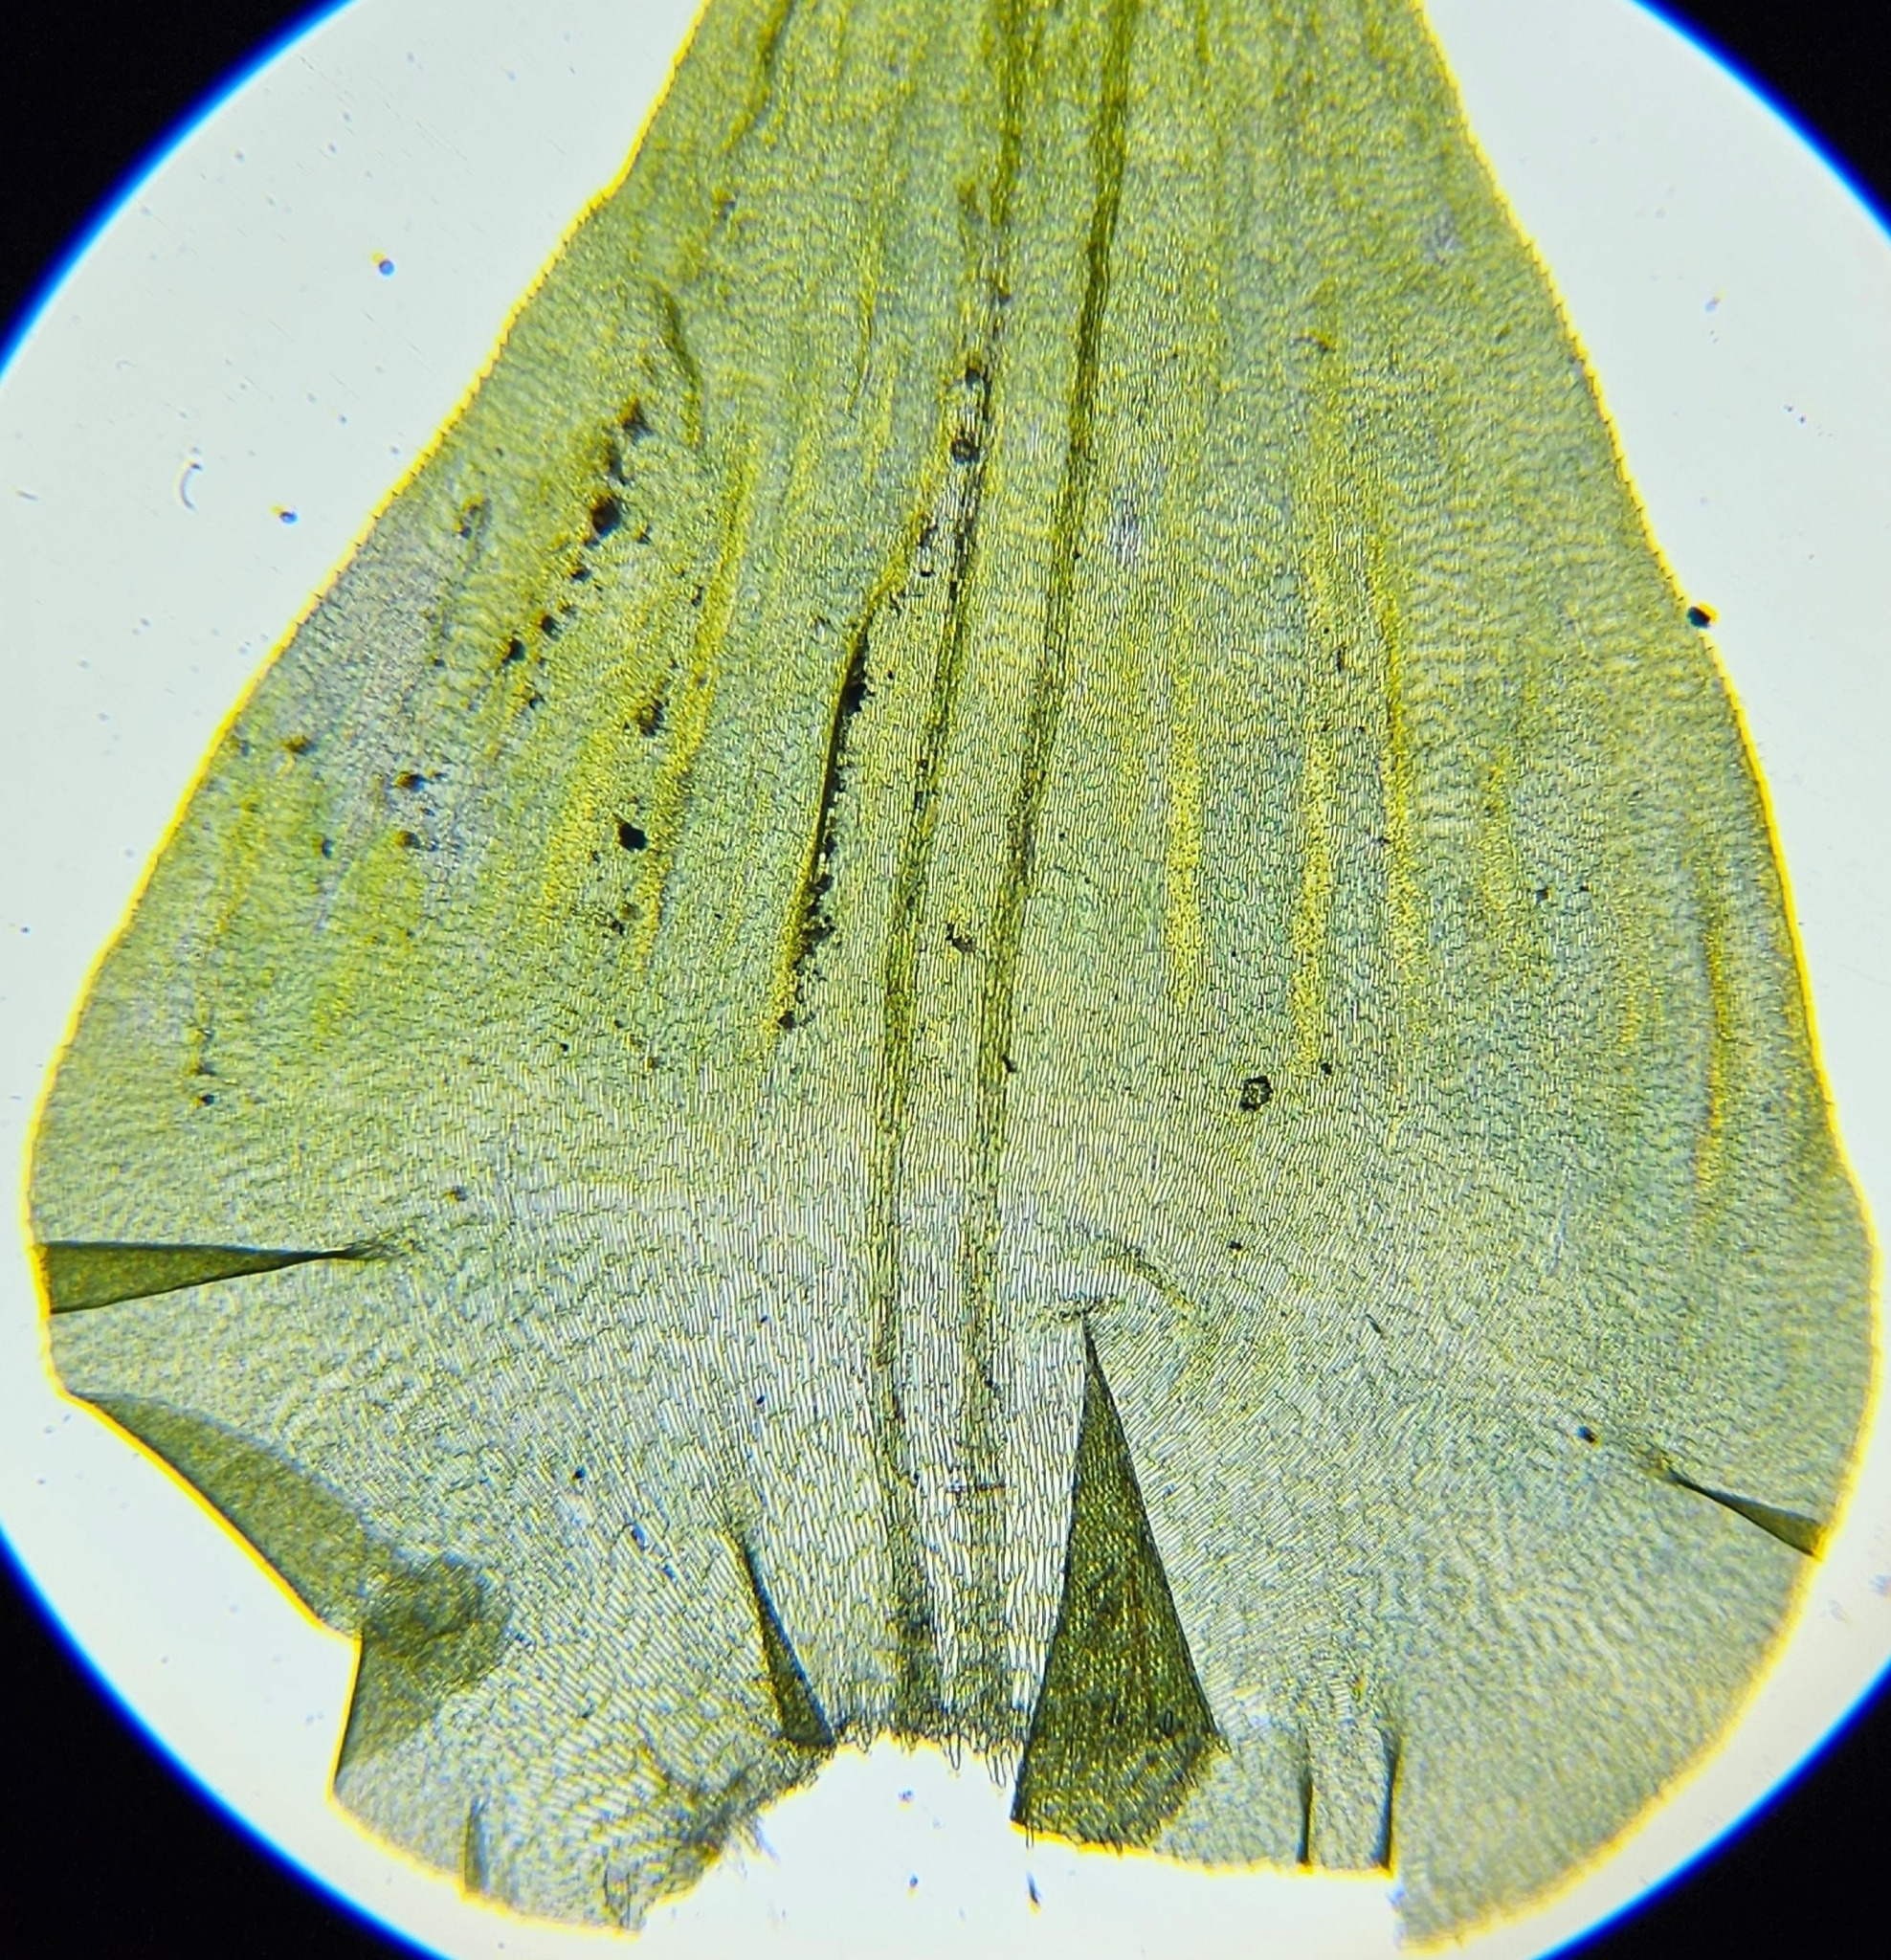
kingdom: Plantae
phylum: Bryophyta
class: Bryopsida
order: Hypnales
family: Hylocomiaceae
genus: Hylocomiadelphus
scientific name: Hylocomiadelphus triquetrus
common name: Rough goose neck moss
